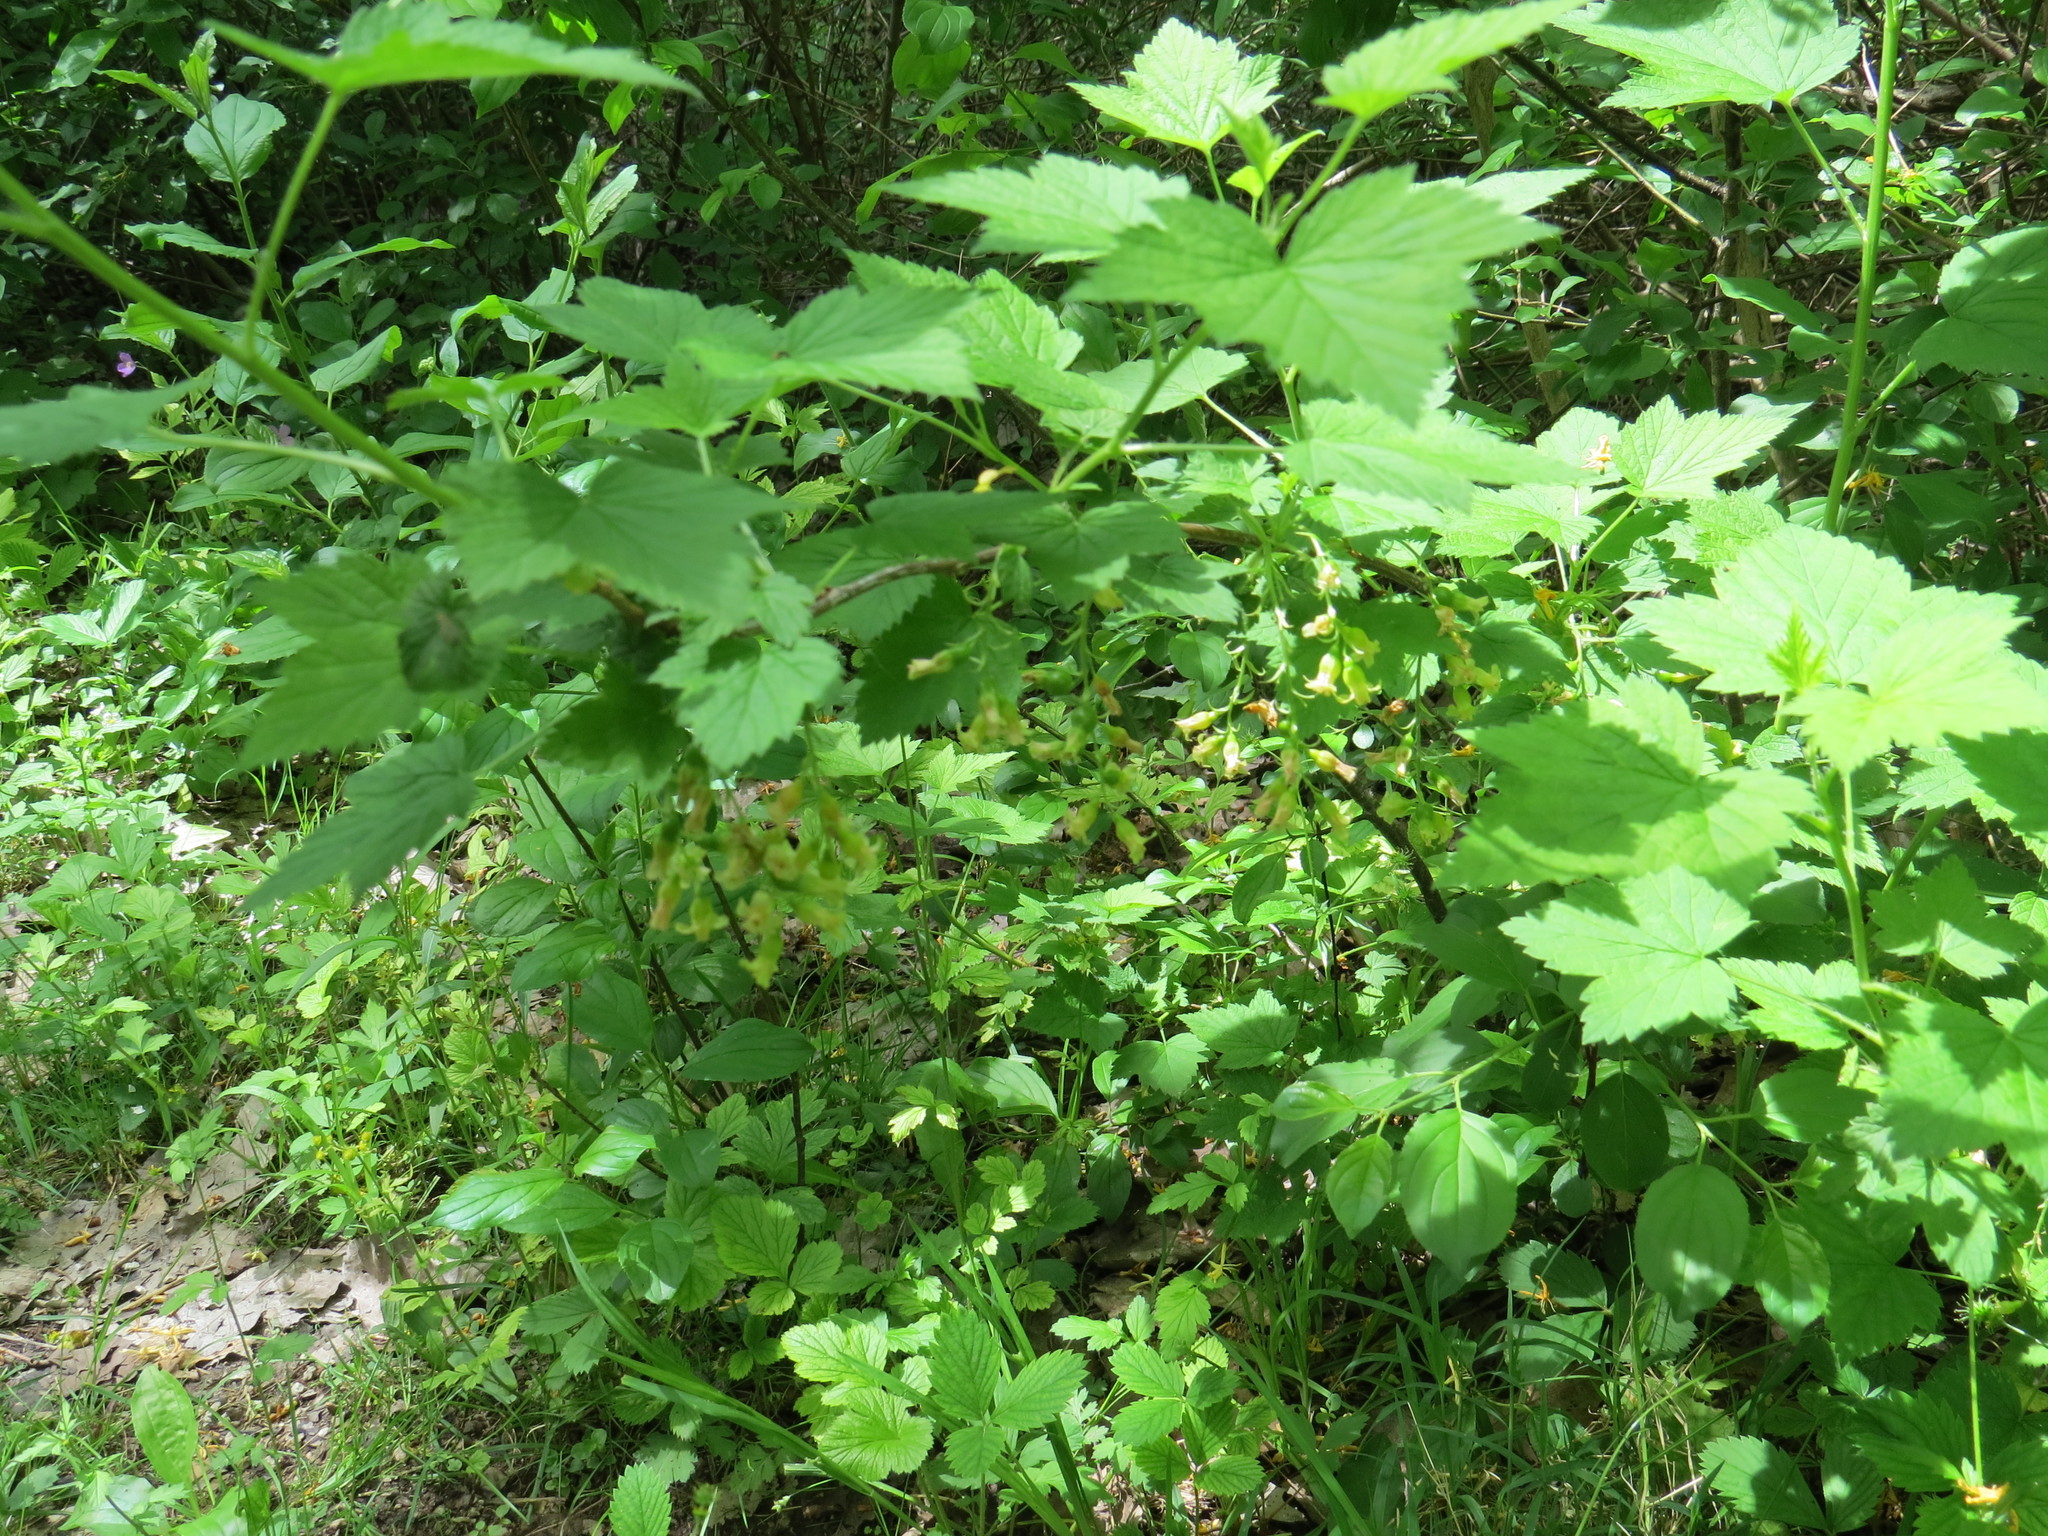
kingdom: Plantae
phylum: Tracheophyta
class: Magnoliopsida
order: Saxifragales
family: Grossulariaceae
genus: Ribes
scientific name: Ribes americanum
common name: American black currant
